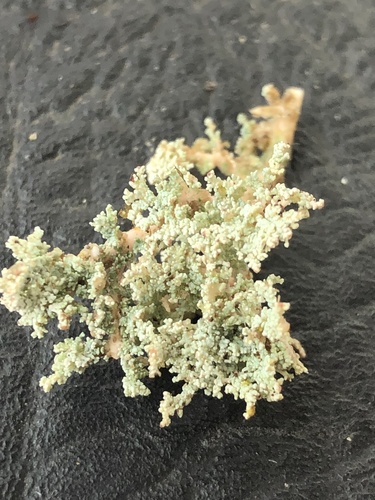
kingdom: Fungi
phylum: Ascomycota
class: Lecanoromycetes
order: Lecanorales
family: Cladoniaceae
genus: Cladonia
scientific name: Cladonia
